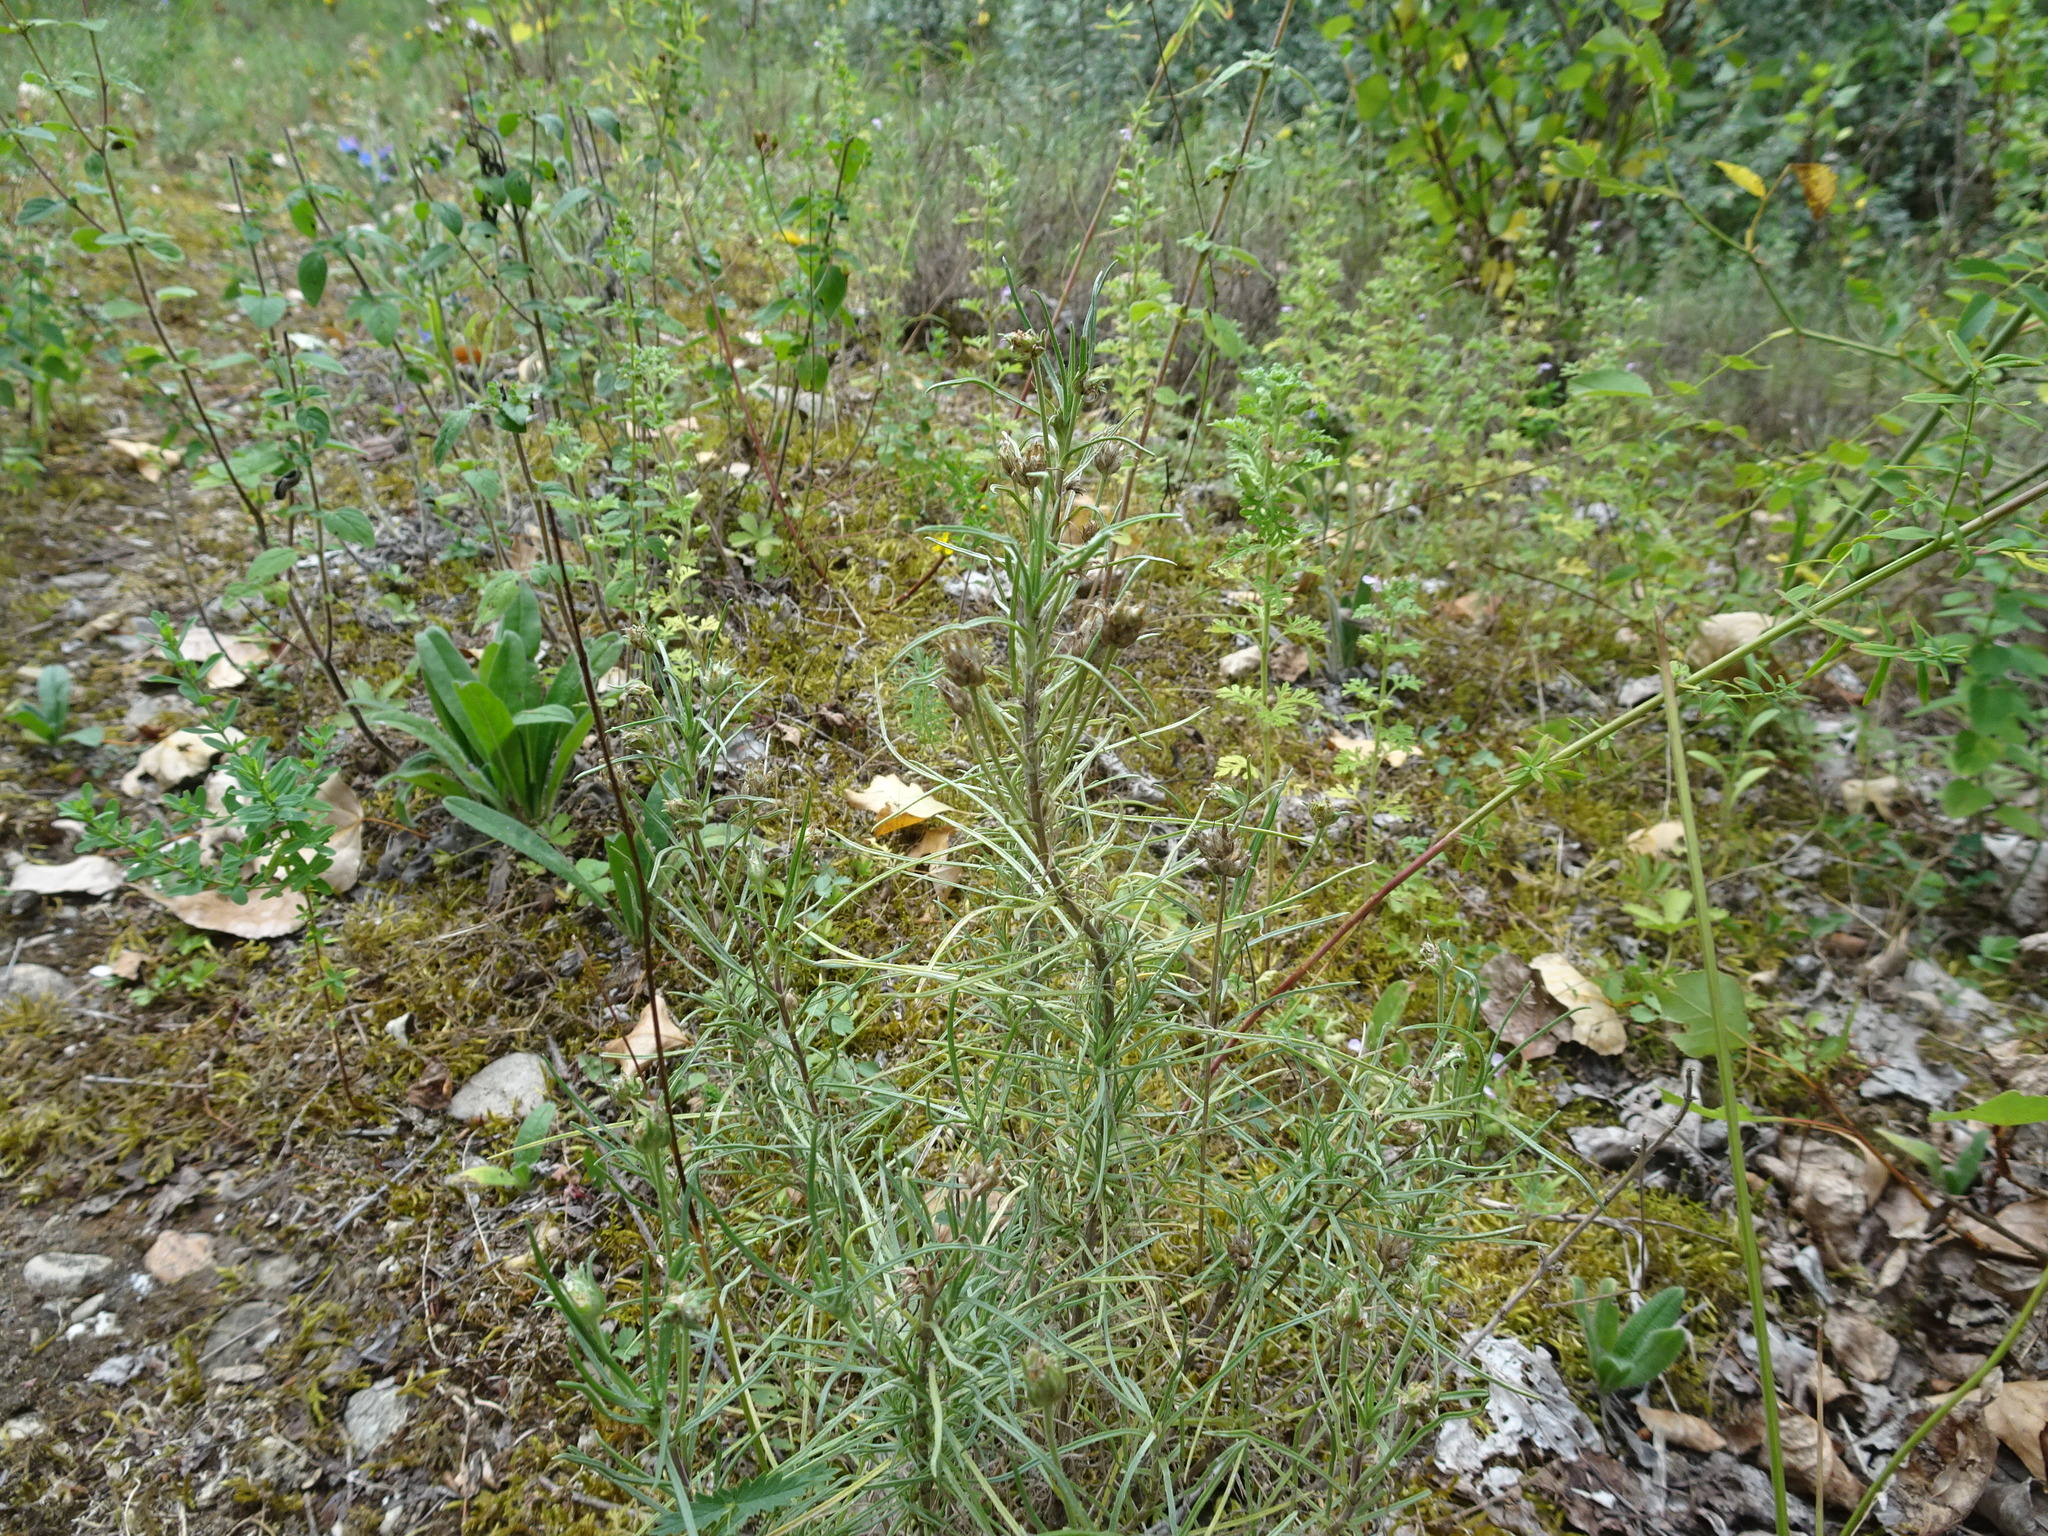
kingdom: Plantae
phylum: Tracheophyta
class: Magnoliopsida
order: Lamiales
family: Plantaginaceae
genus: Plantago
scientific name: Plantago arenaria
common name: Branched plantain
